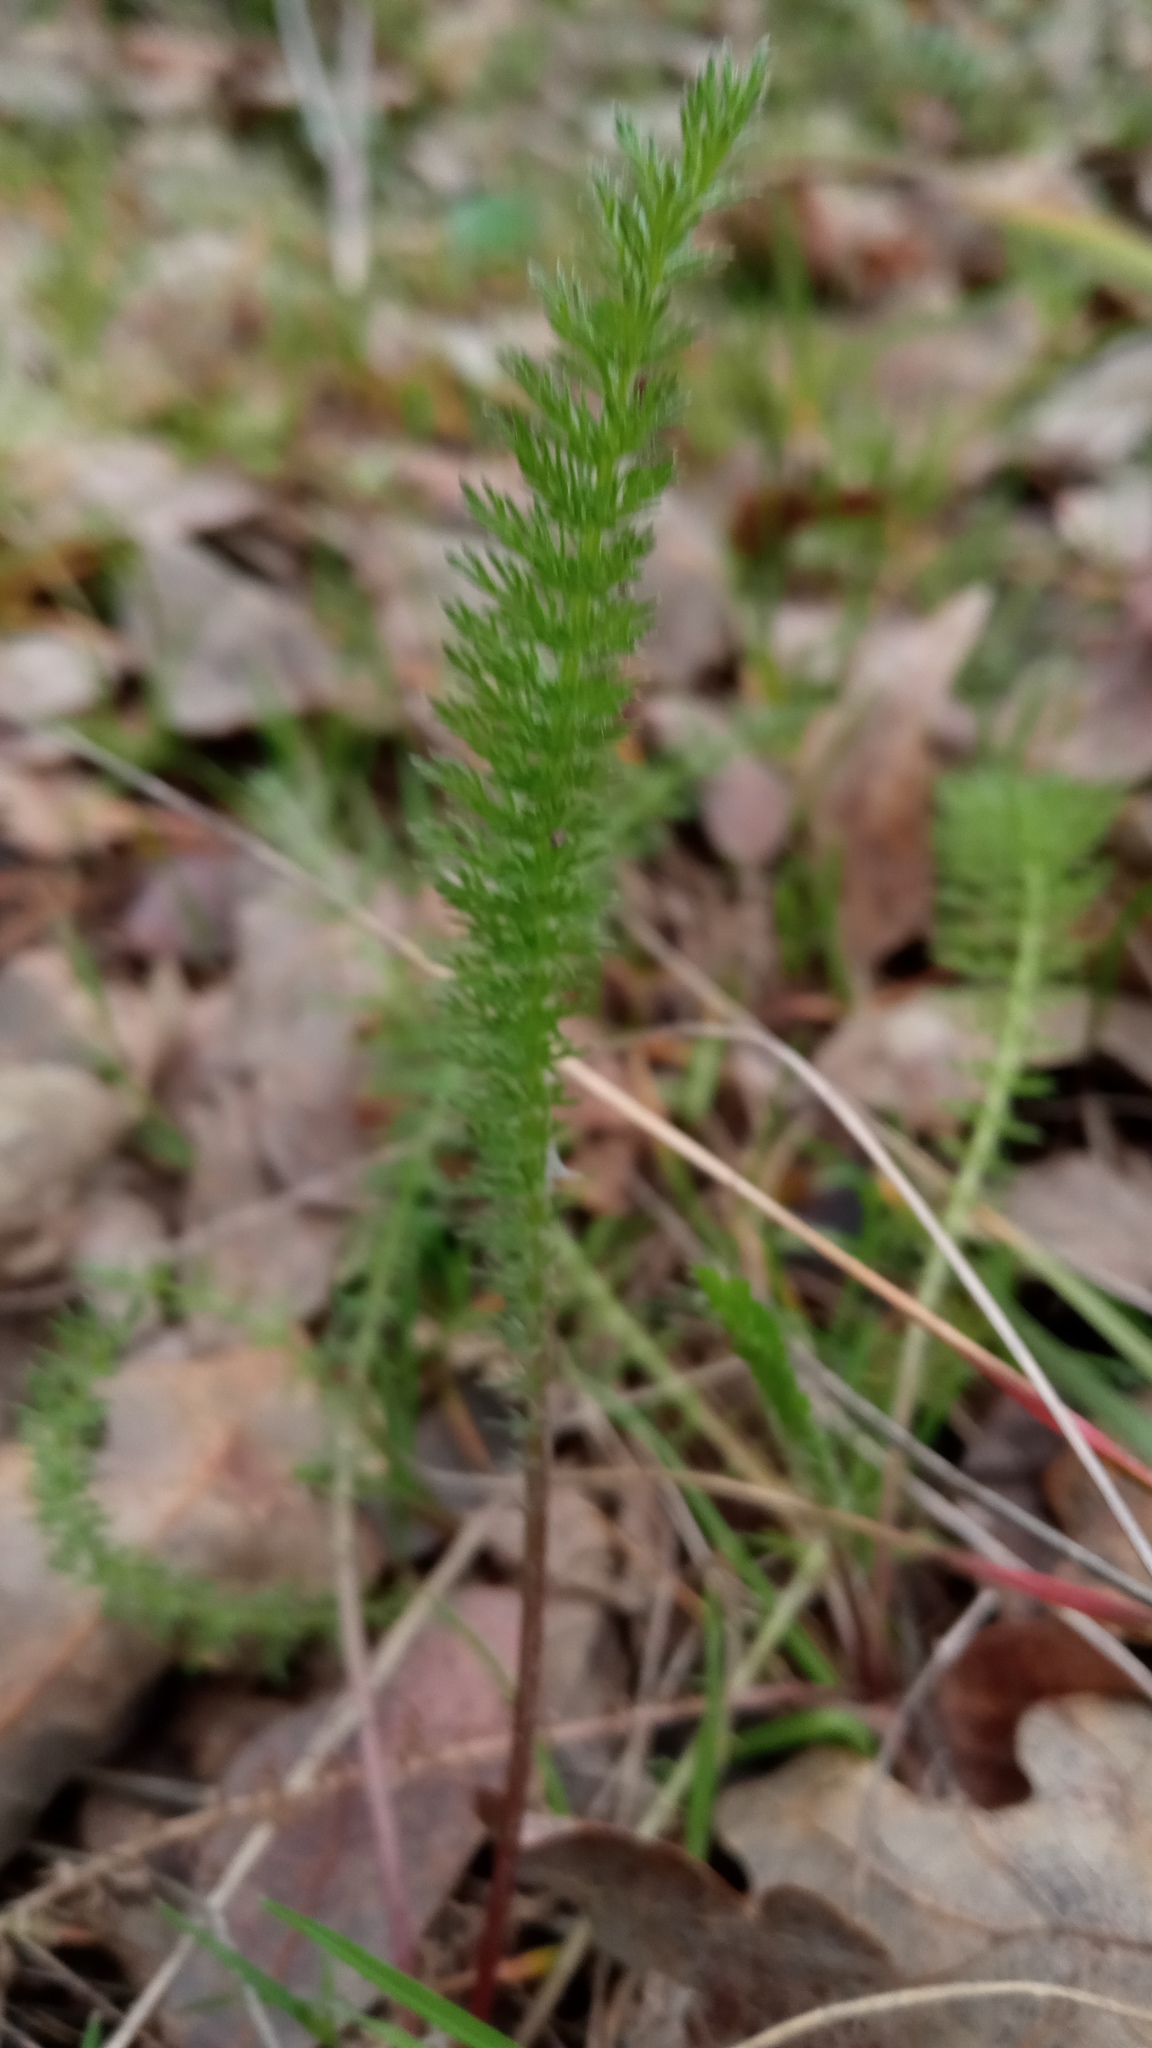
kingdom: Plantae
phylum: Tracheophyta
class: Magnoliopsida
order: Asterales
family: Asteraceae
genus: Achillea
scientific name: Achillea millefolium
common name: Yarrow
